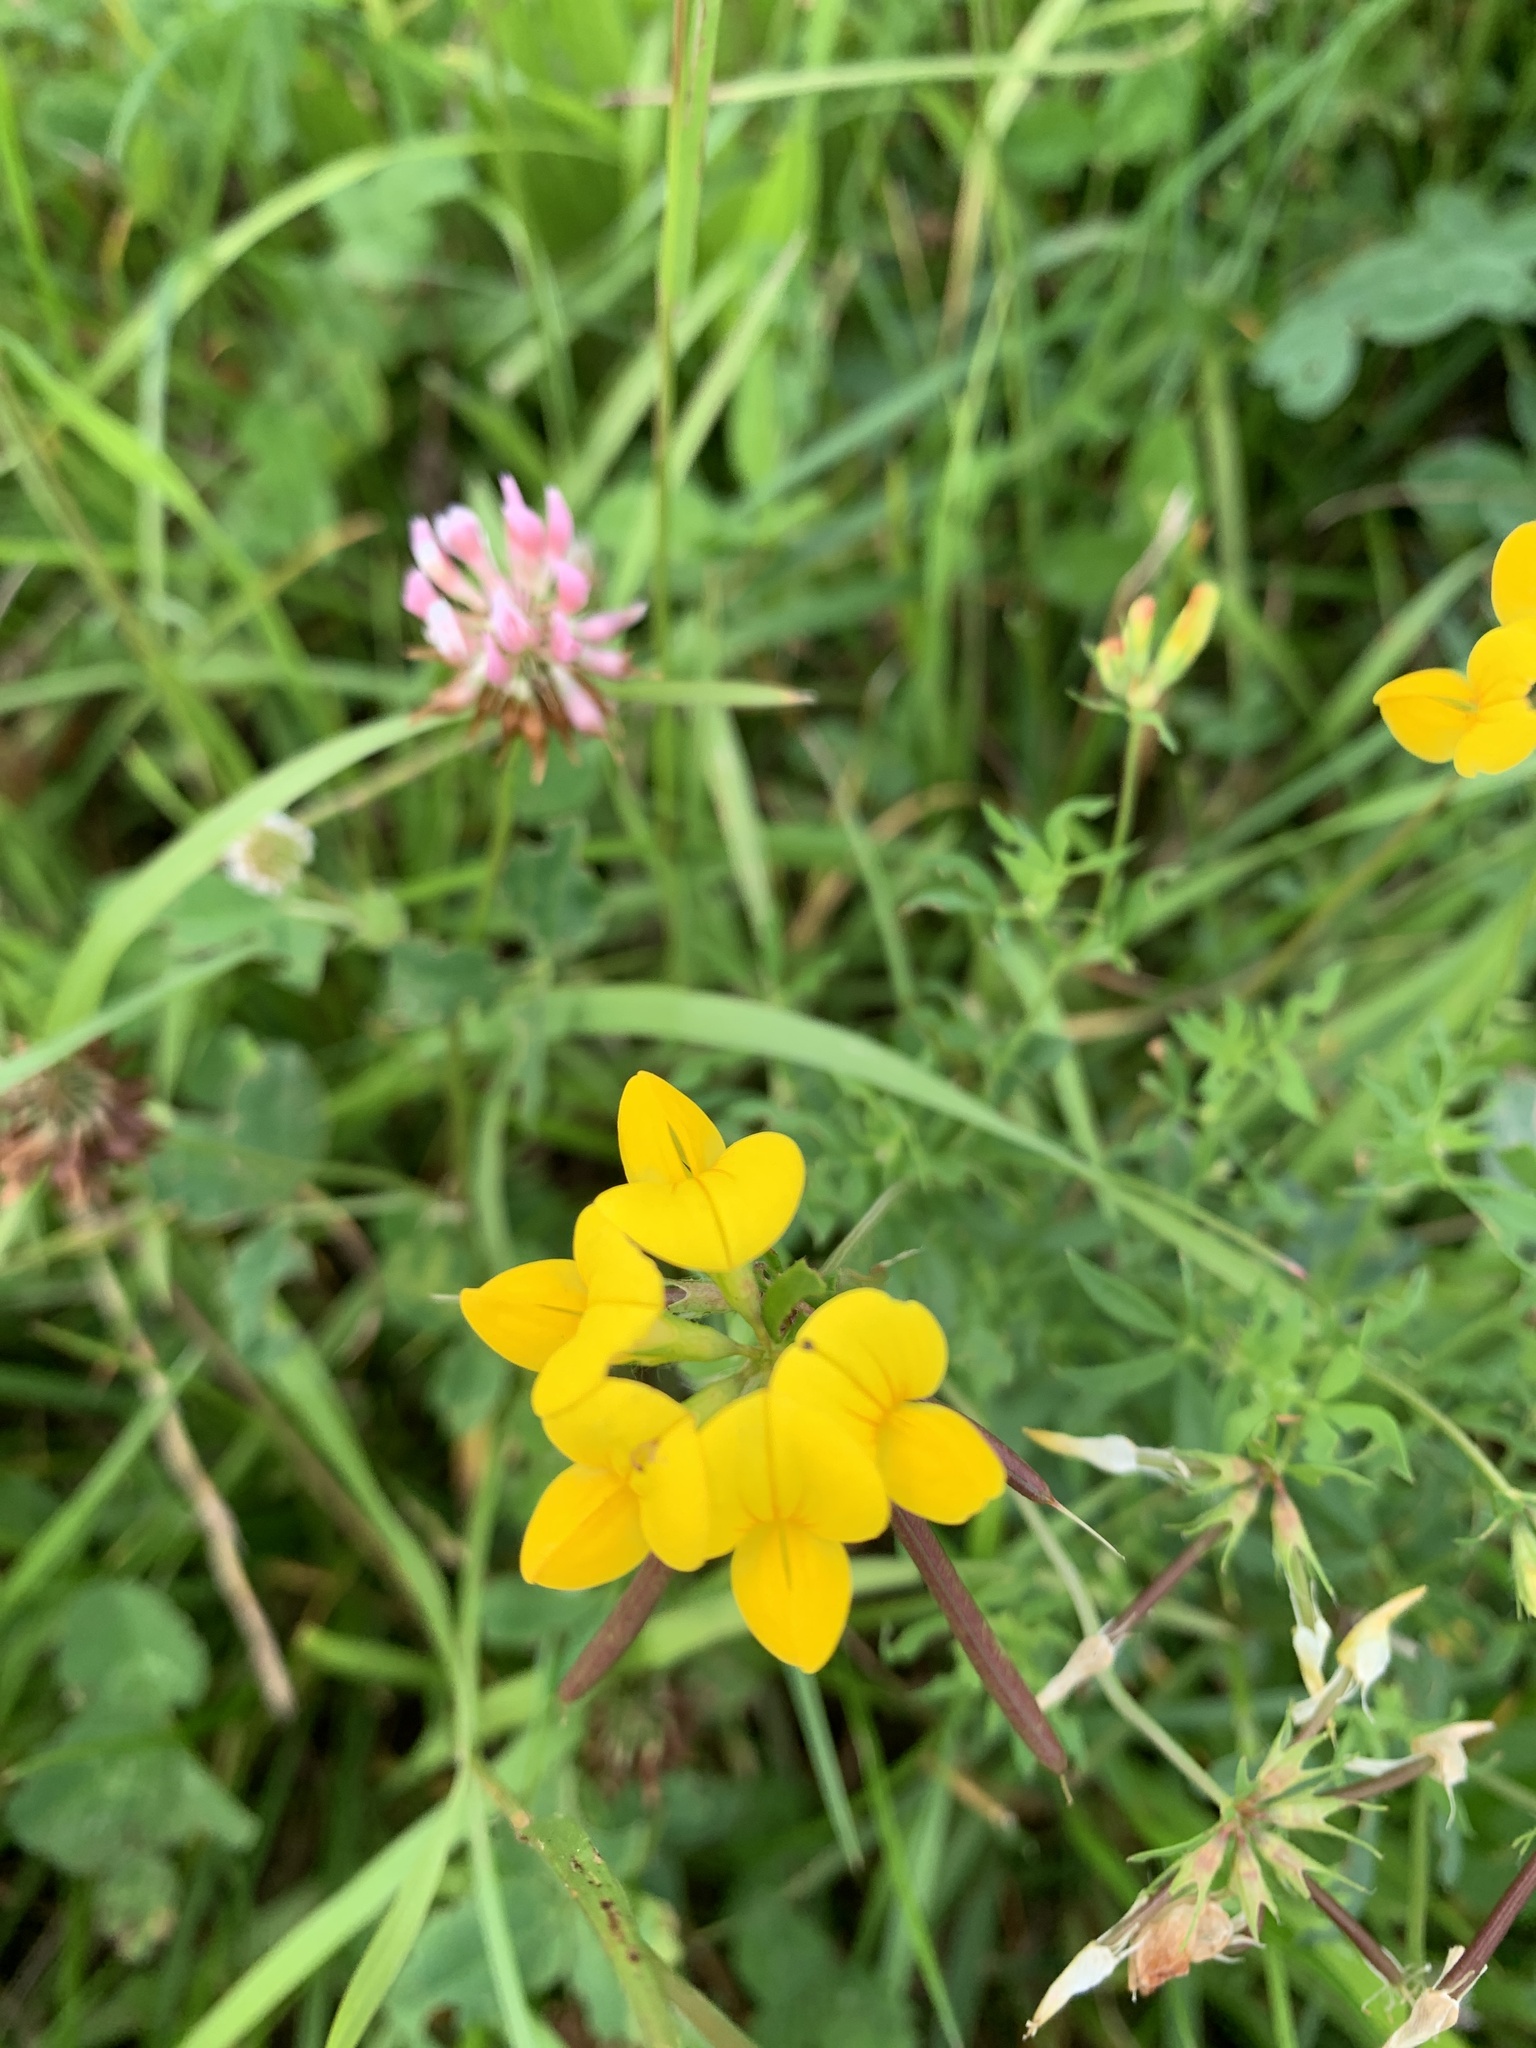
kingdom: Plantae
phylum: Tracheophyta
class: Magnoliopsida
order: Fabales
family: Fabaceae
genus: Lotus
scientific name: Lotus corniculatus
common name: Common bird's-foot-trefoil
